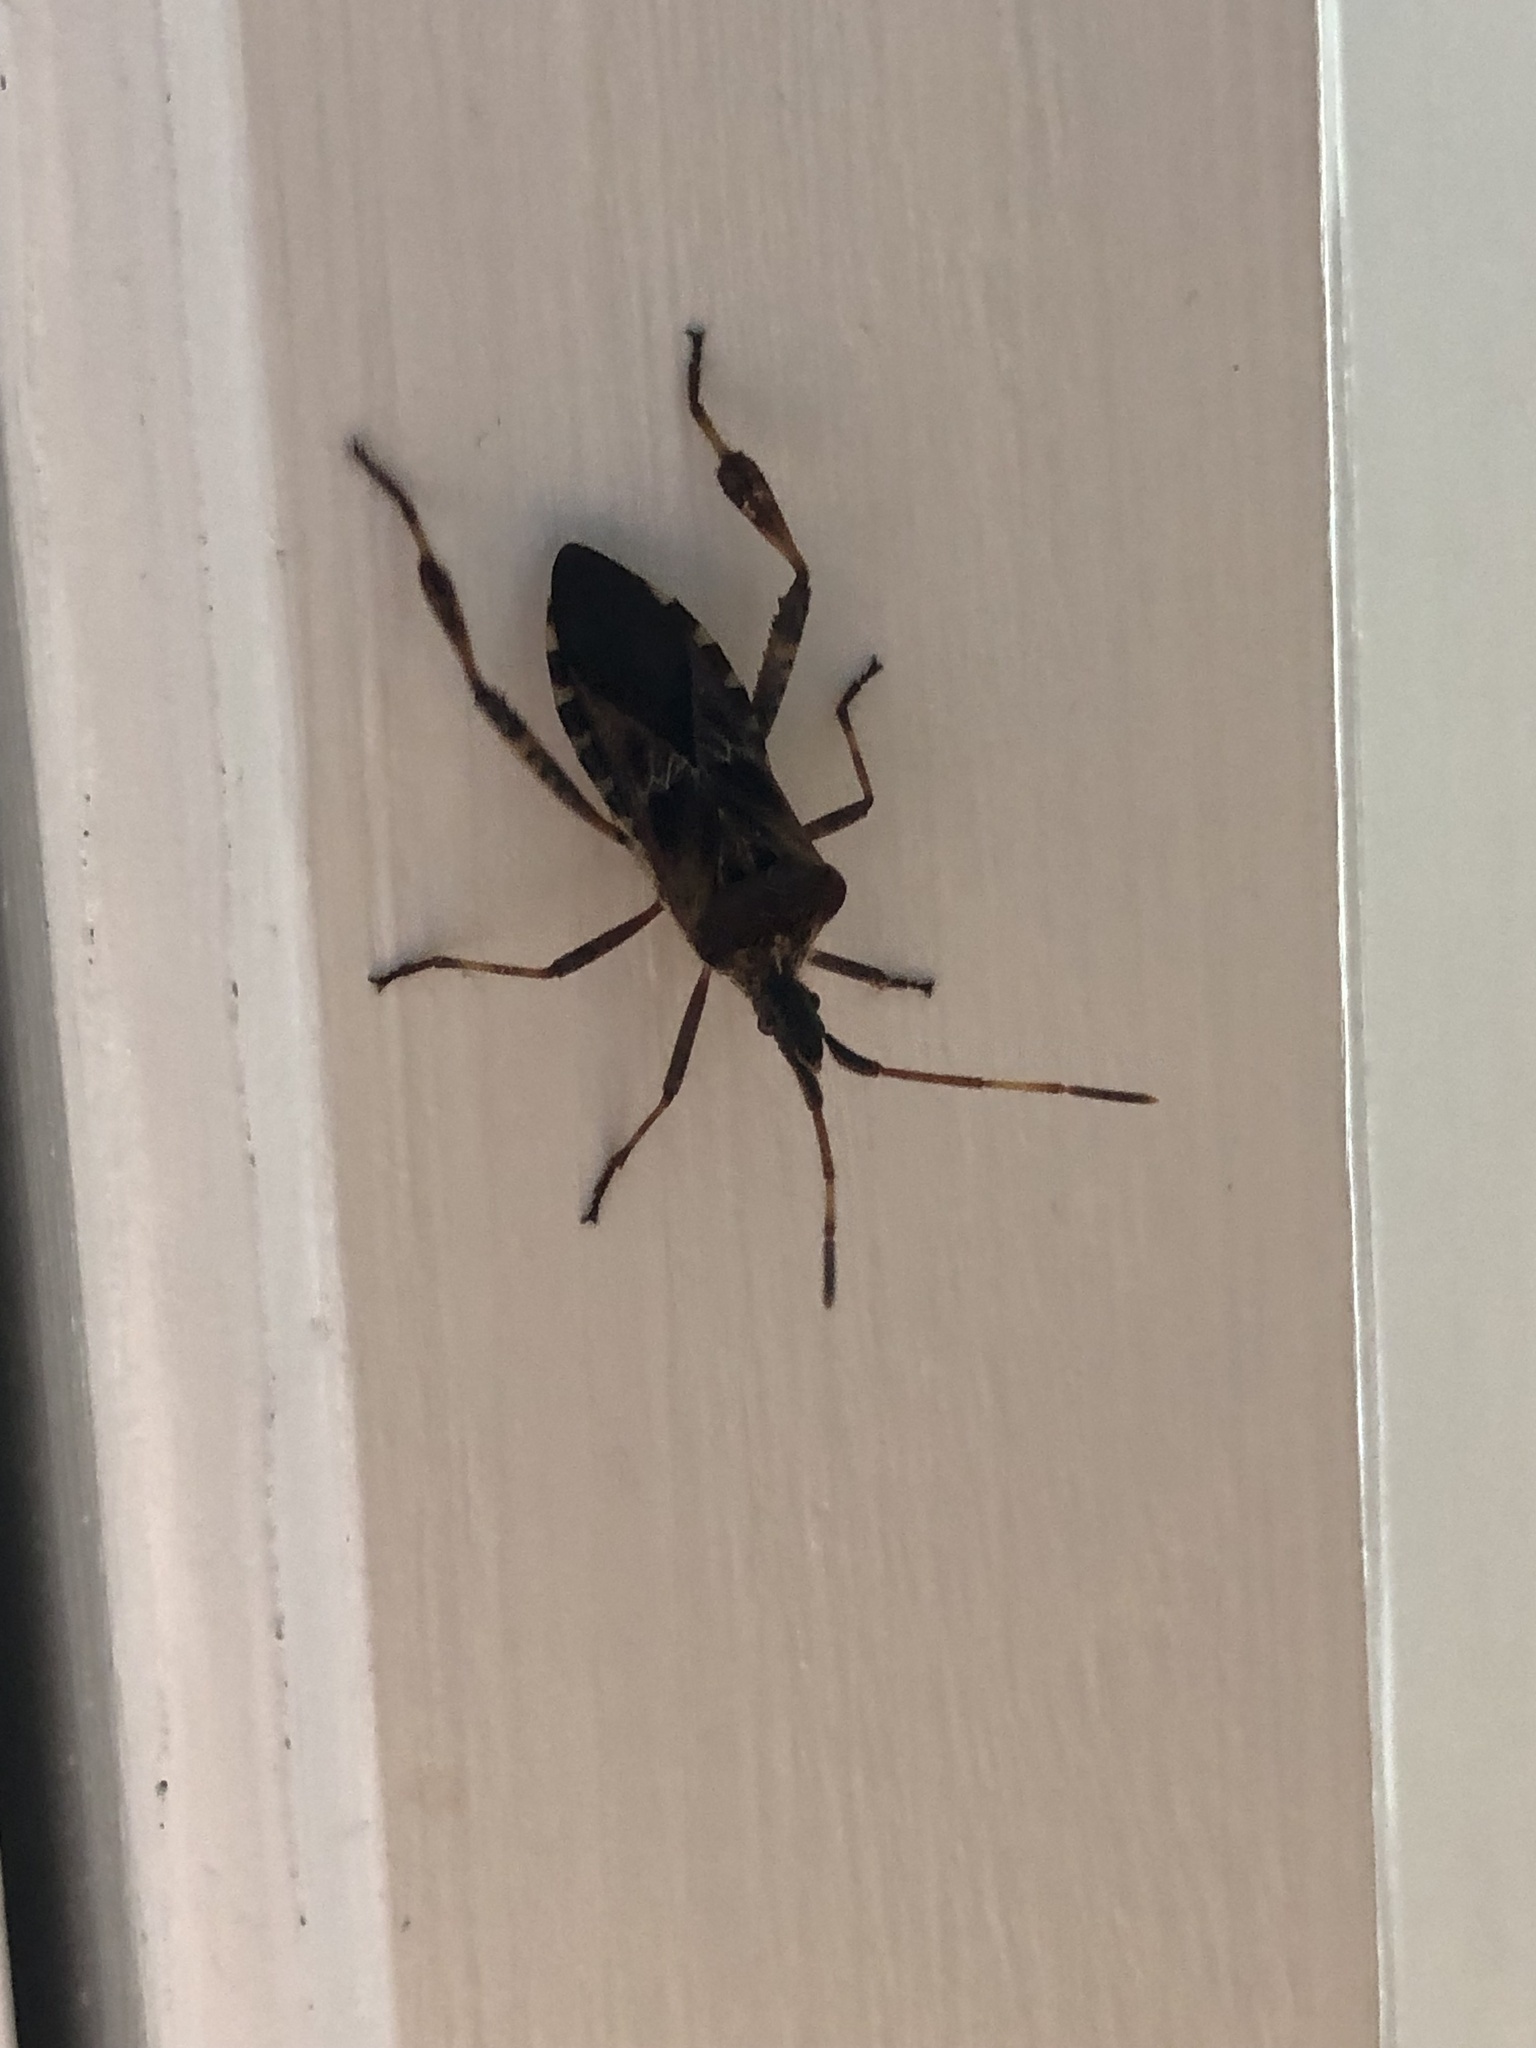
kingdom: Animalia
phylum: Arthropoda
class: Insecta
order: Hemiptera
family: Coreidae
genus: Leptoglossus
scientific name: Leptoglossus occidentalis
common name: Western conifer-seed bug
